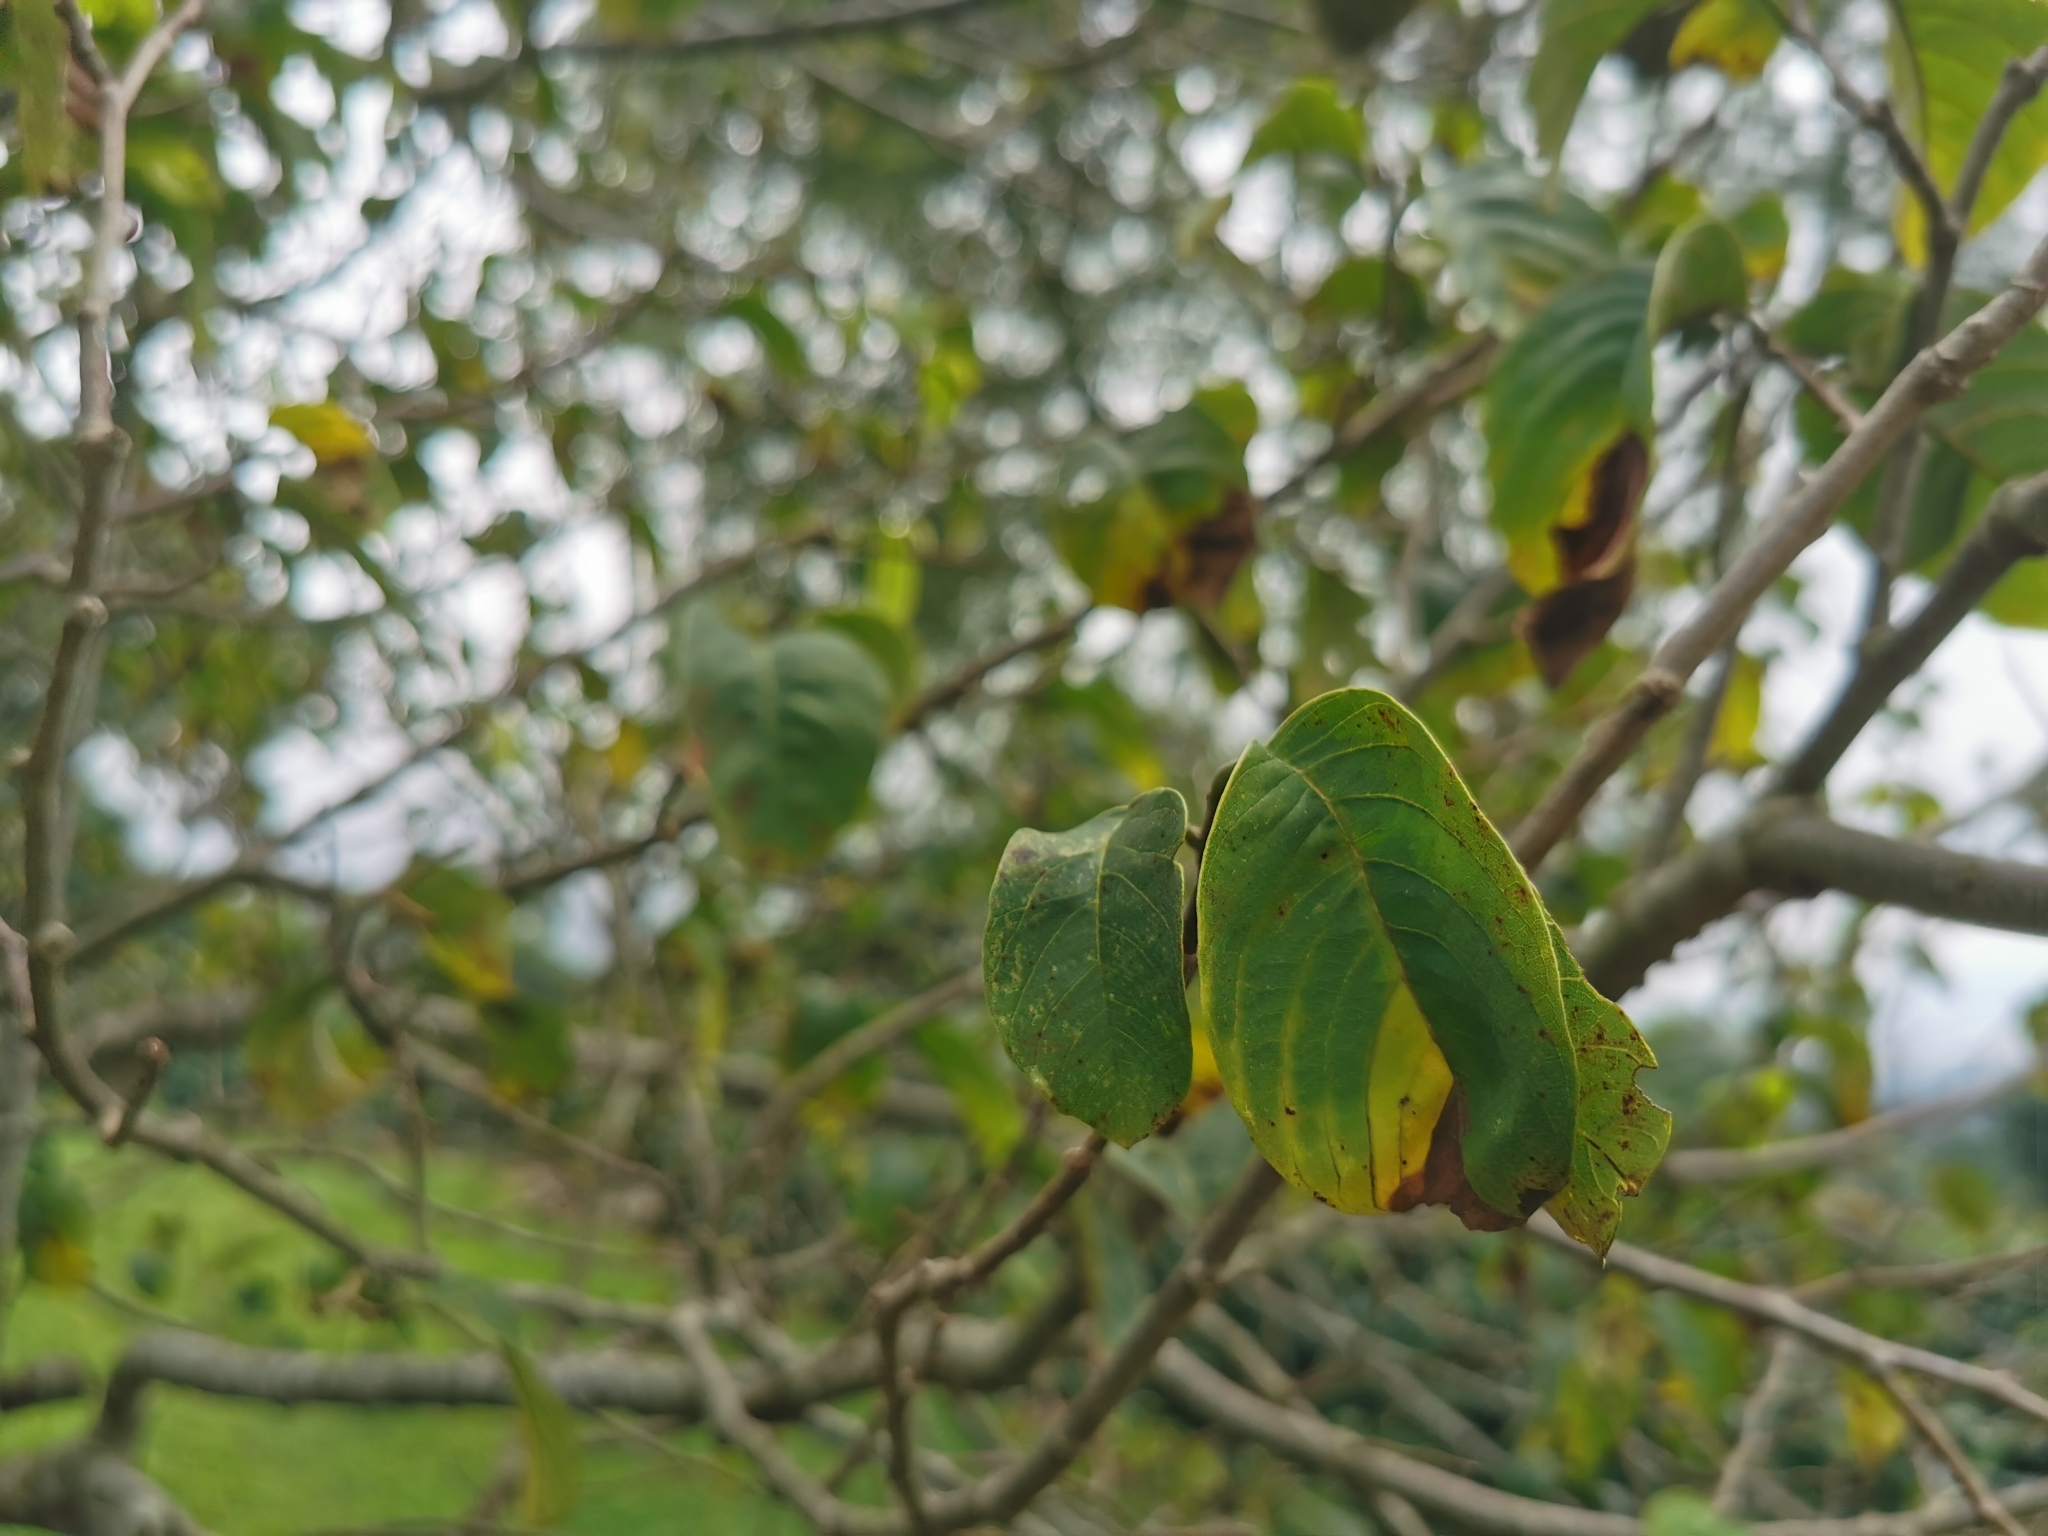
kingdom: Plantae
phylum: Tracheophyta
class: Magnoliopsida
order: Magnoliales
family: Annonaceae
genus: Annona
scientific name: Annona cherimola
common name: Cherimoya
